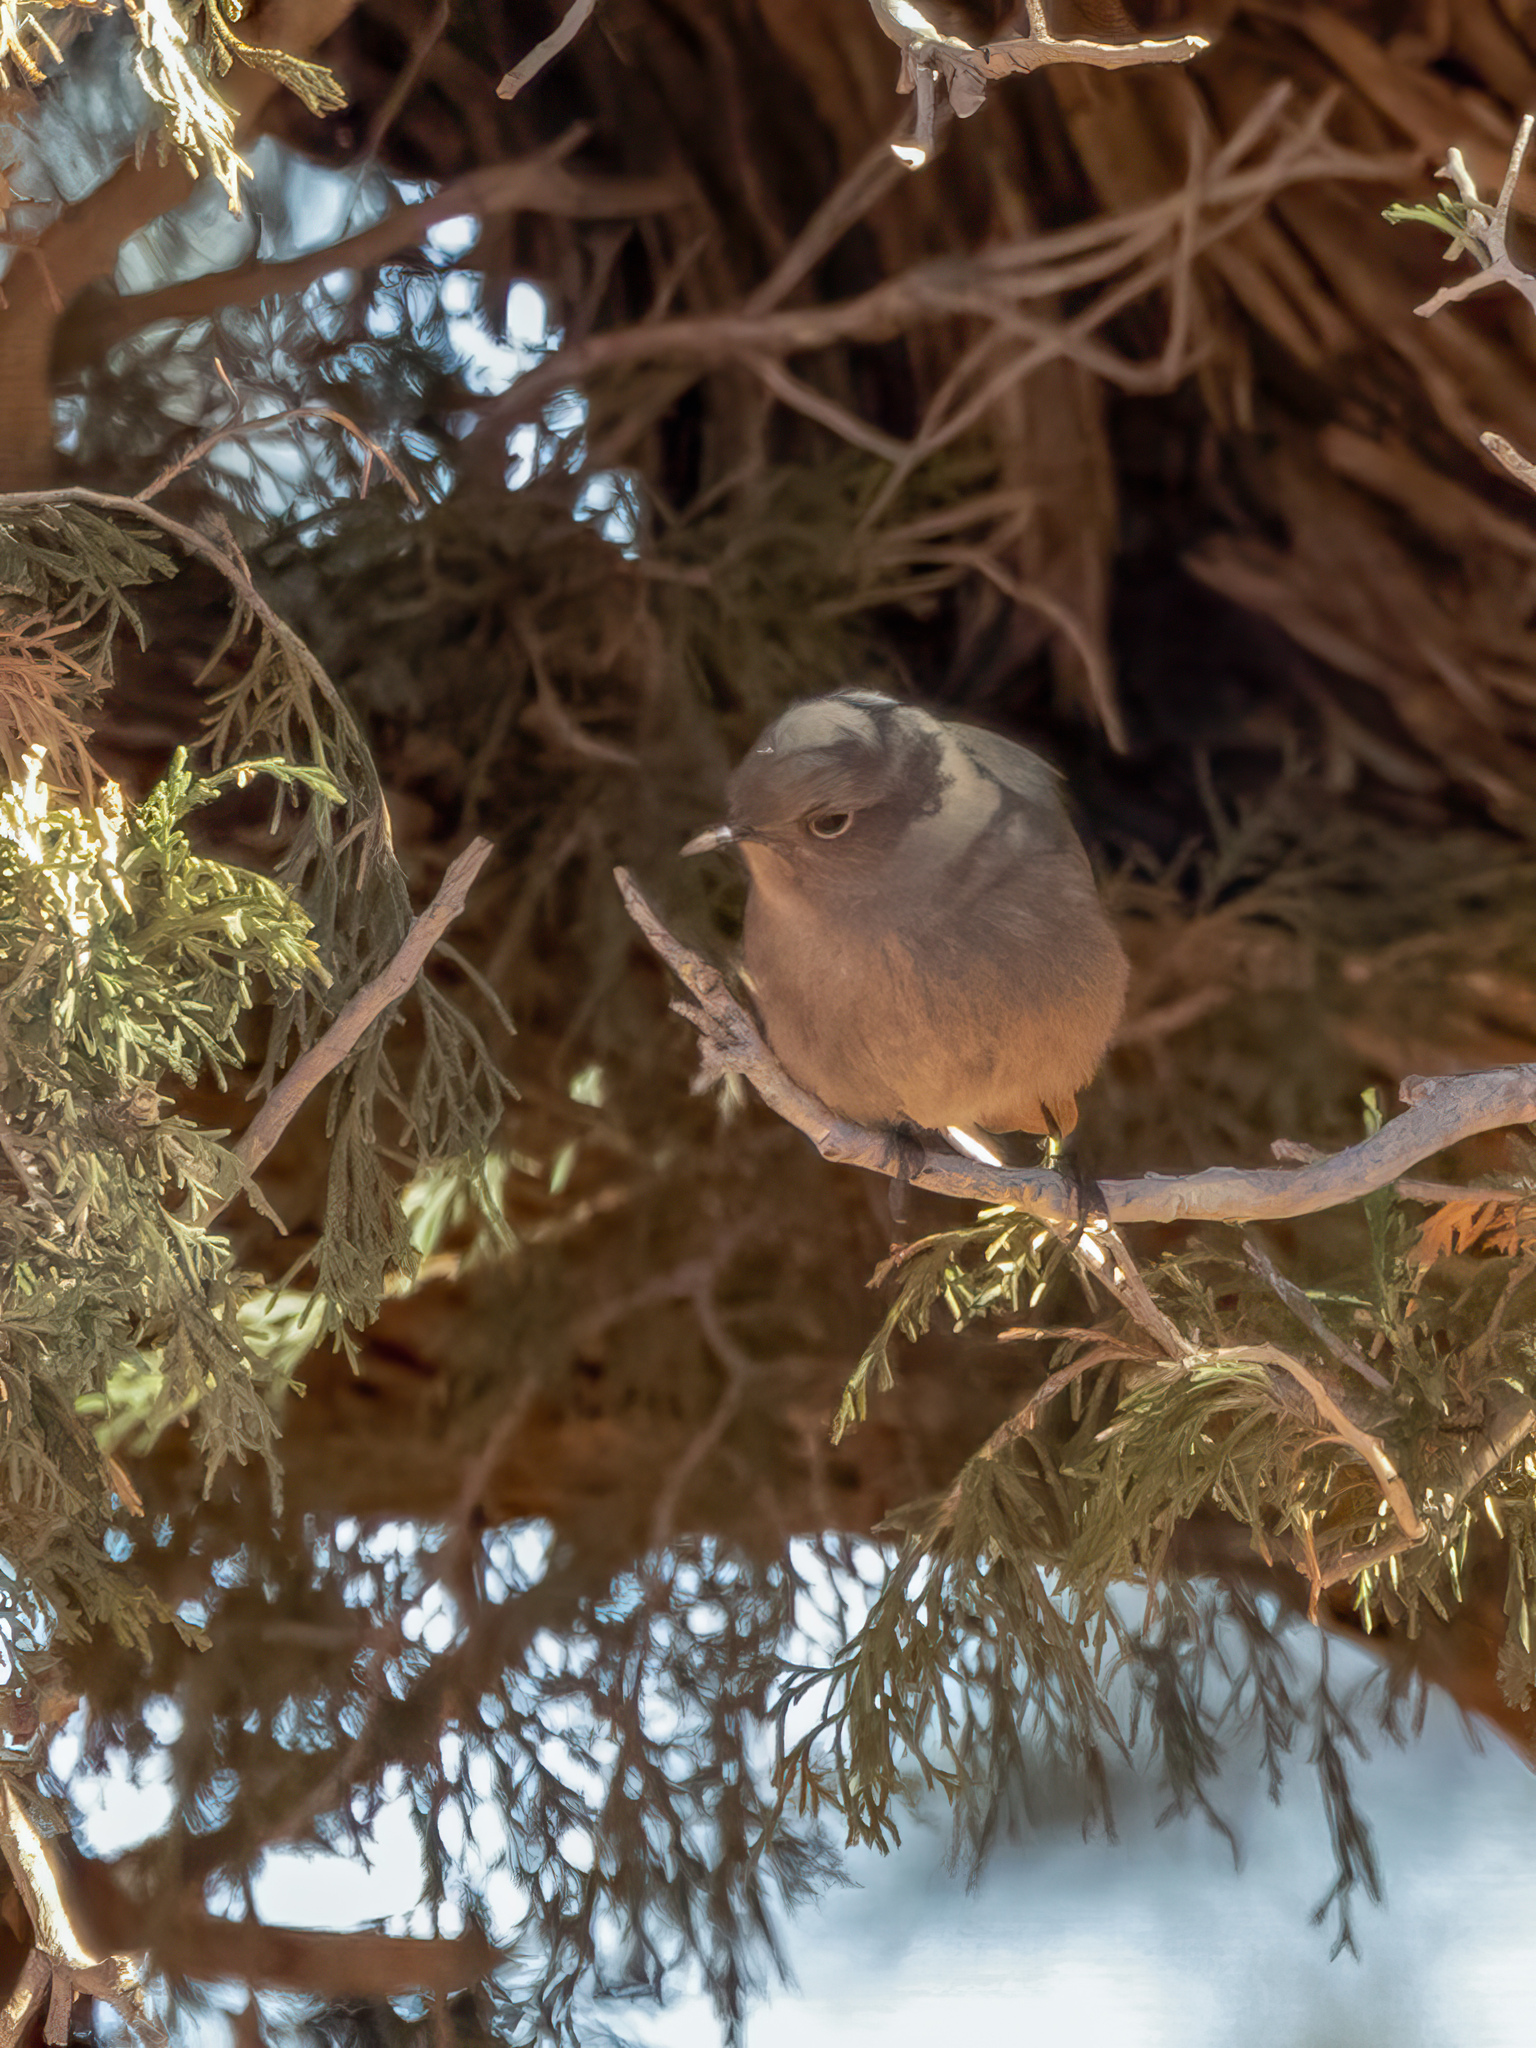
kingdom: Animalia
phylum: Chordata
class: Aves
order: Passeriformes
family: Muscicapidae
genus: Phoenicurus
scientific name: Phoenicurus ochruros
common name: Black redstart
